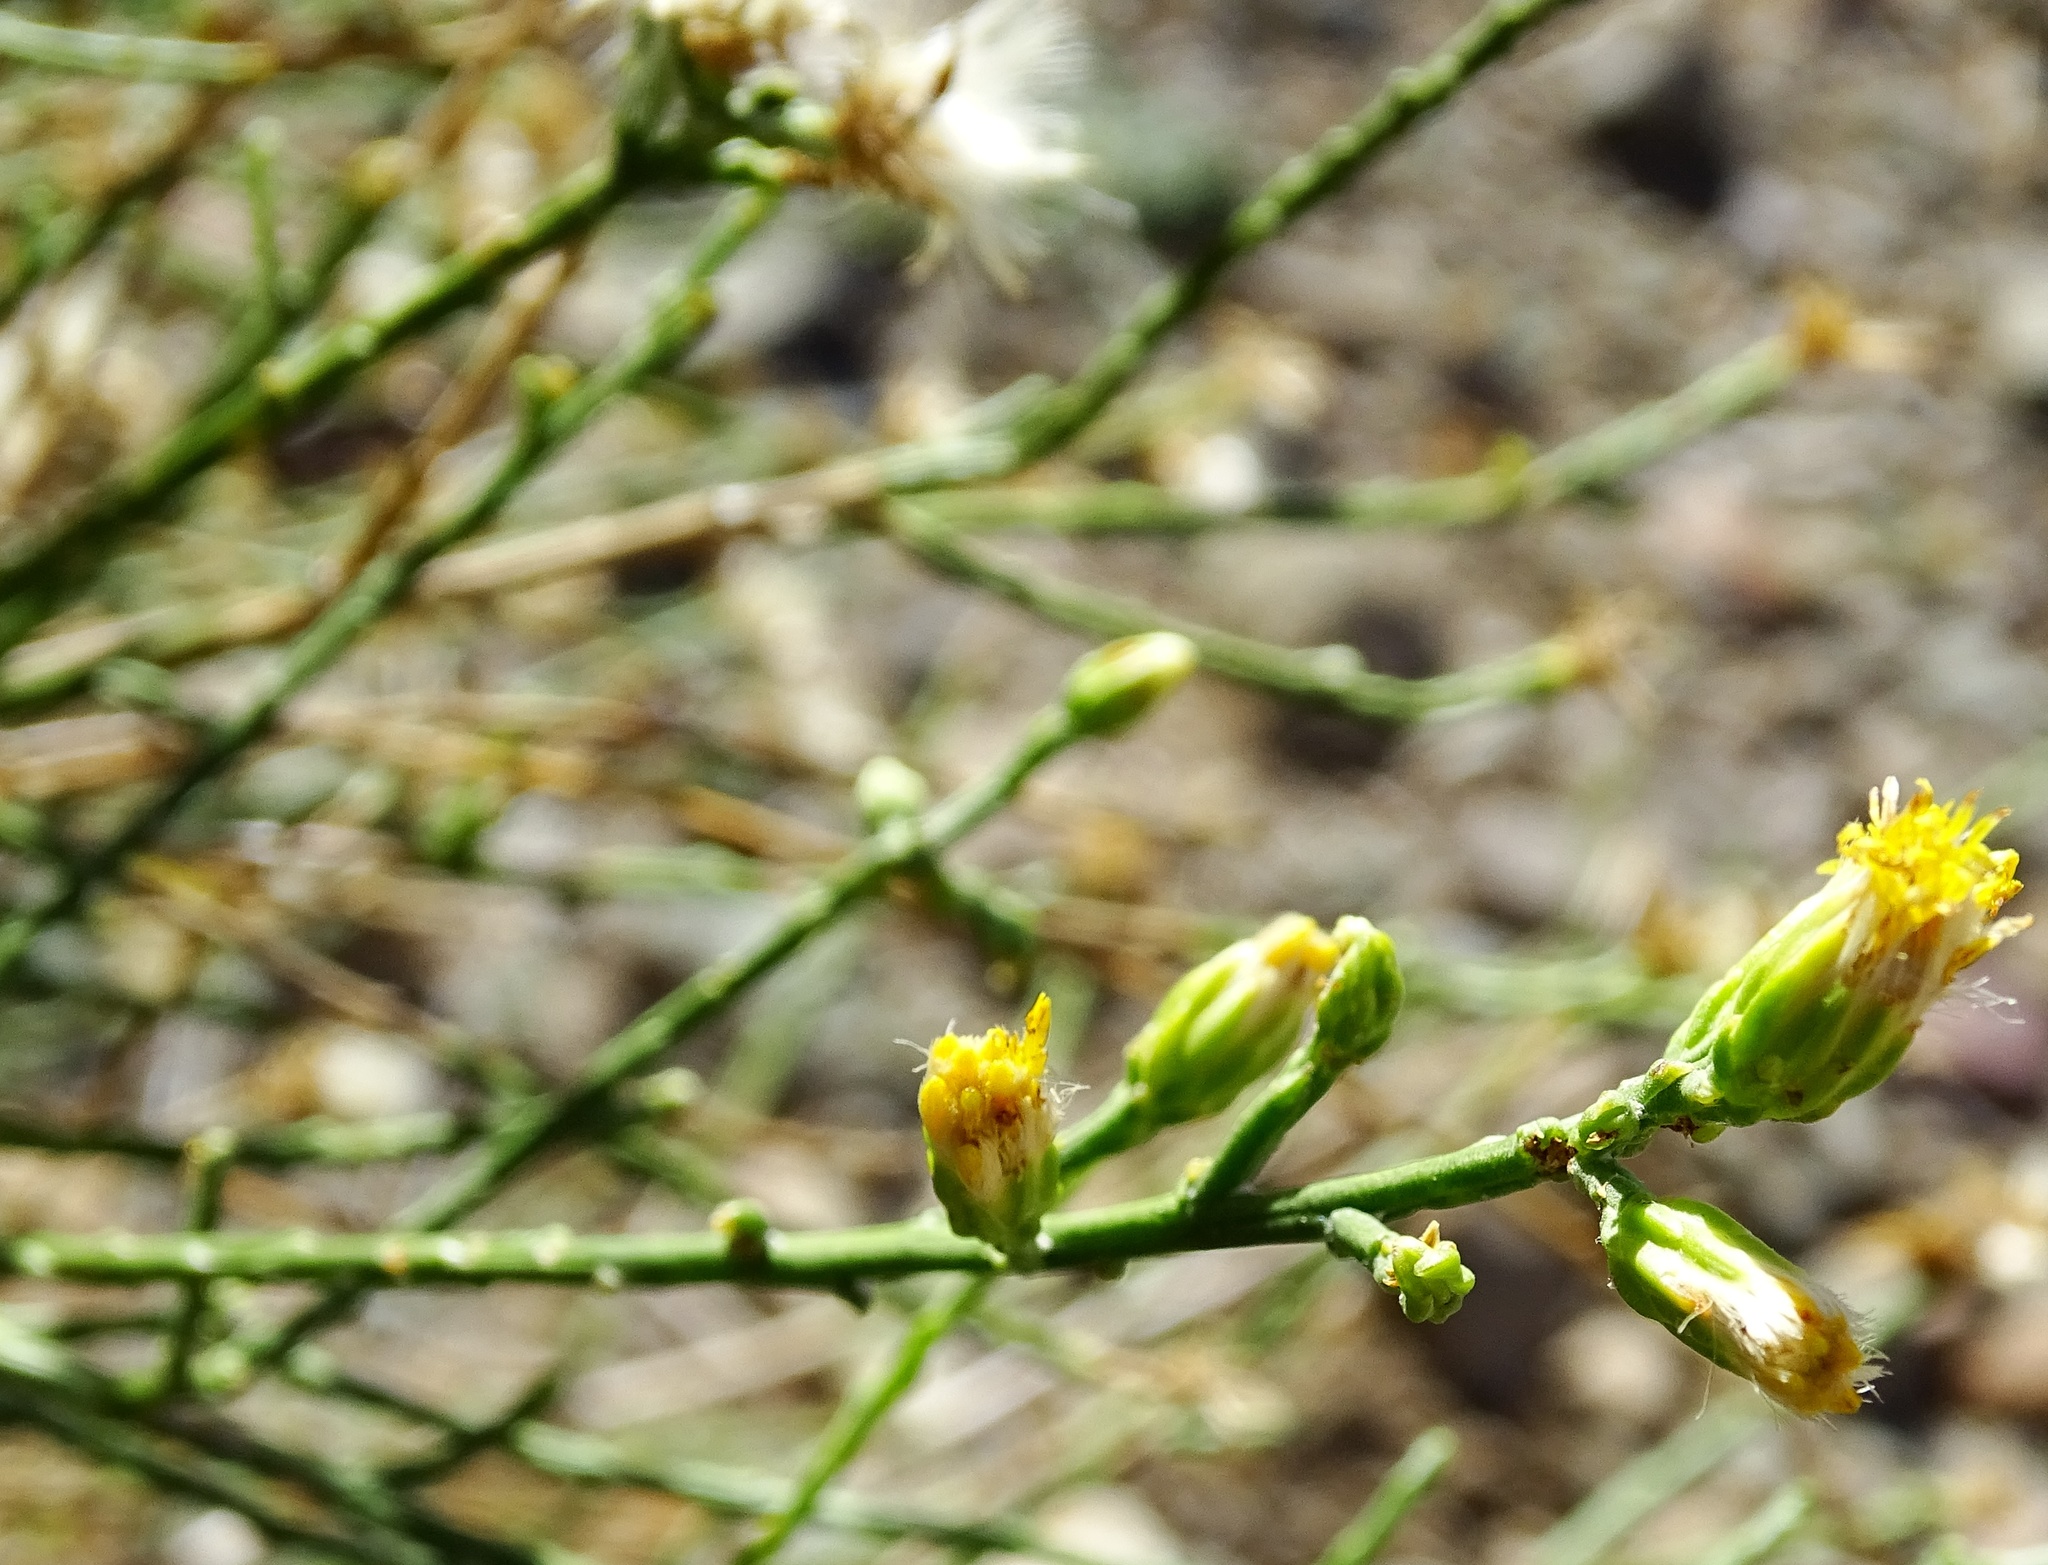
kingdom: Plantae
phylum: Tracheophyta
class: Magnoliopsida
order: Asterales
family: Asteraceae
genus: Lepidospartum
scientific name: Lepidospartum squamatum
